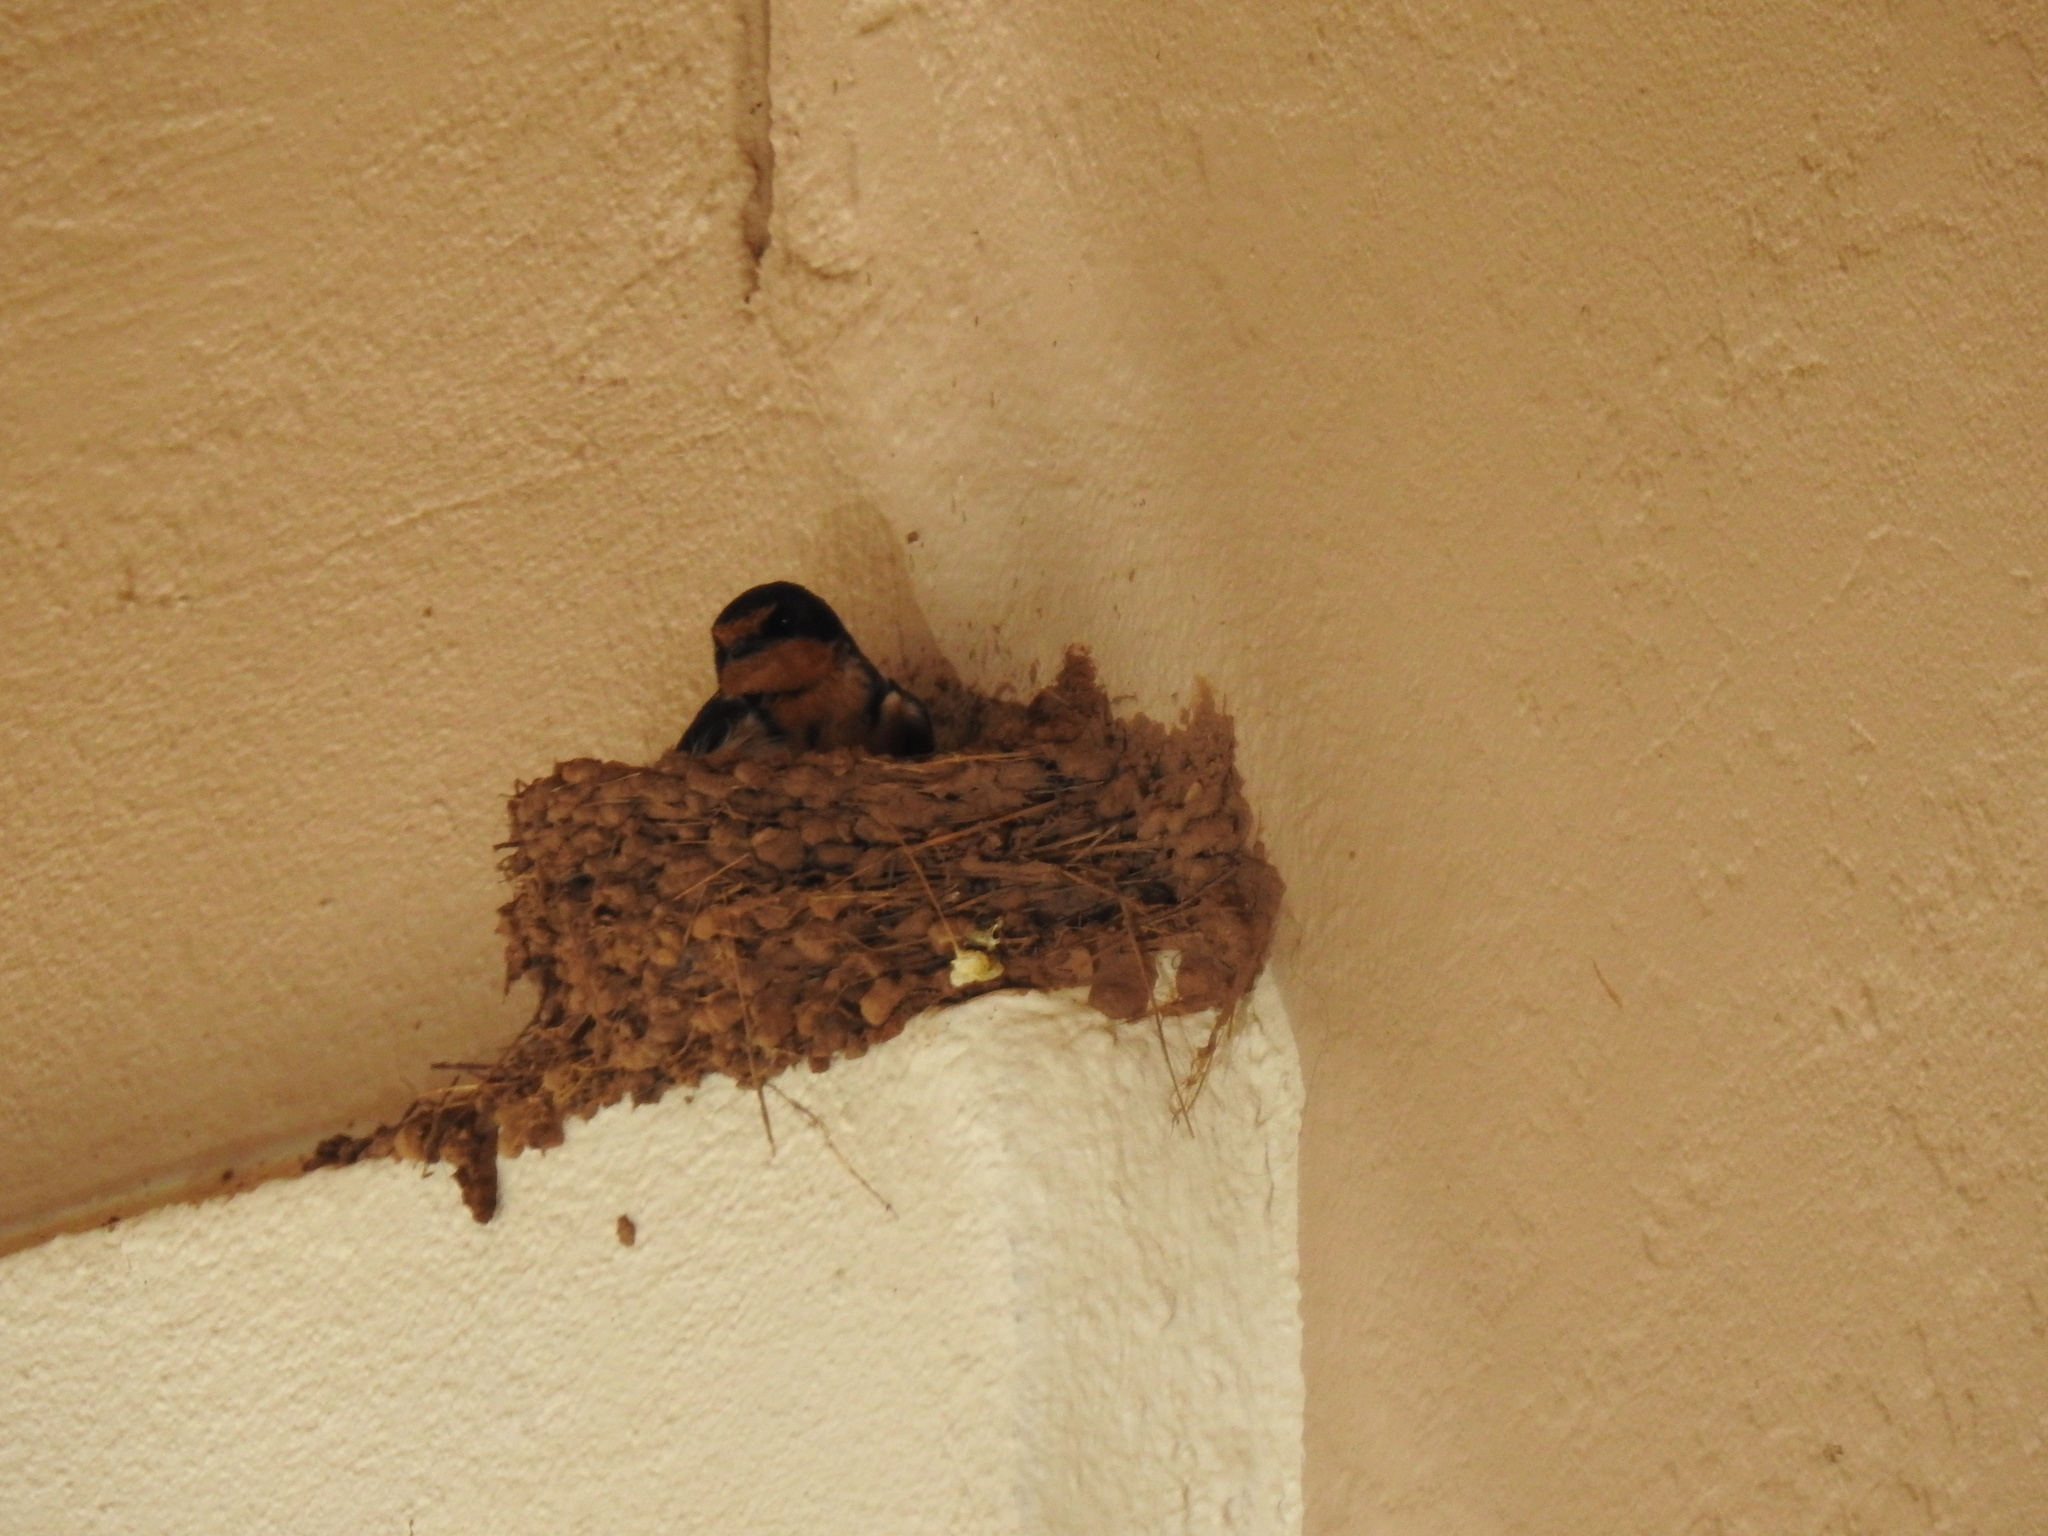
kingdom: Animalia
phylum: Chordata
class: Aves
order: Passeriformes
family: Hirundinidae
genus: Hirundo
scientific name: Hirundo rustica
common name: Barn swallow
